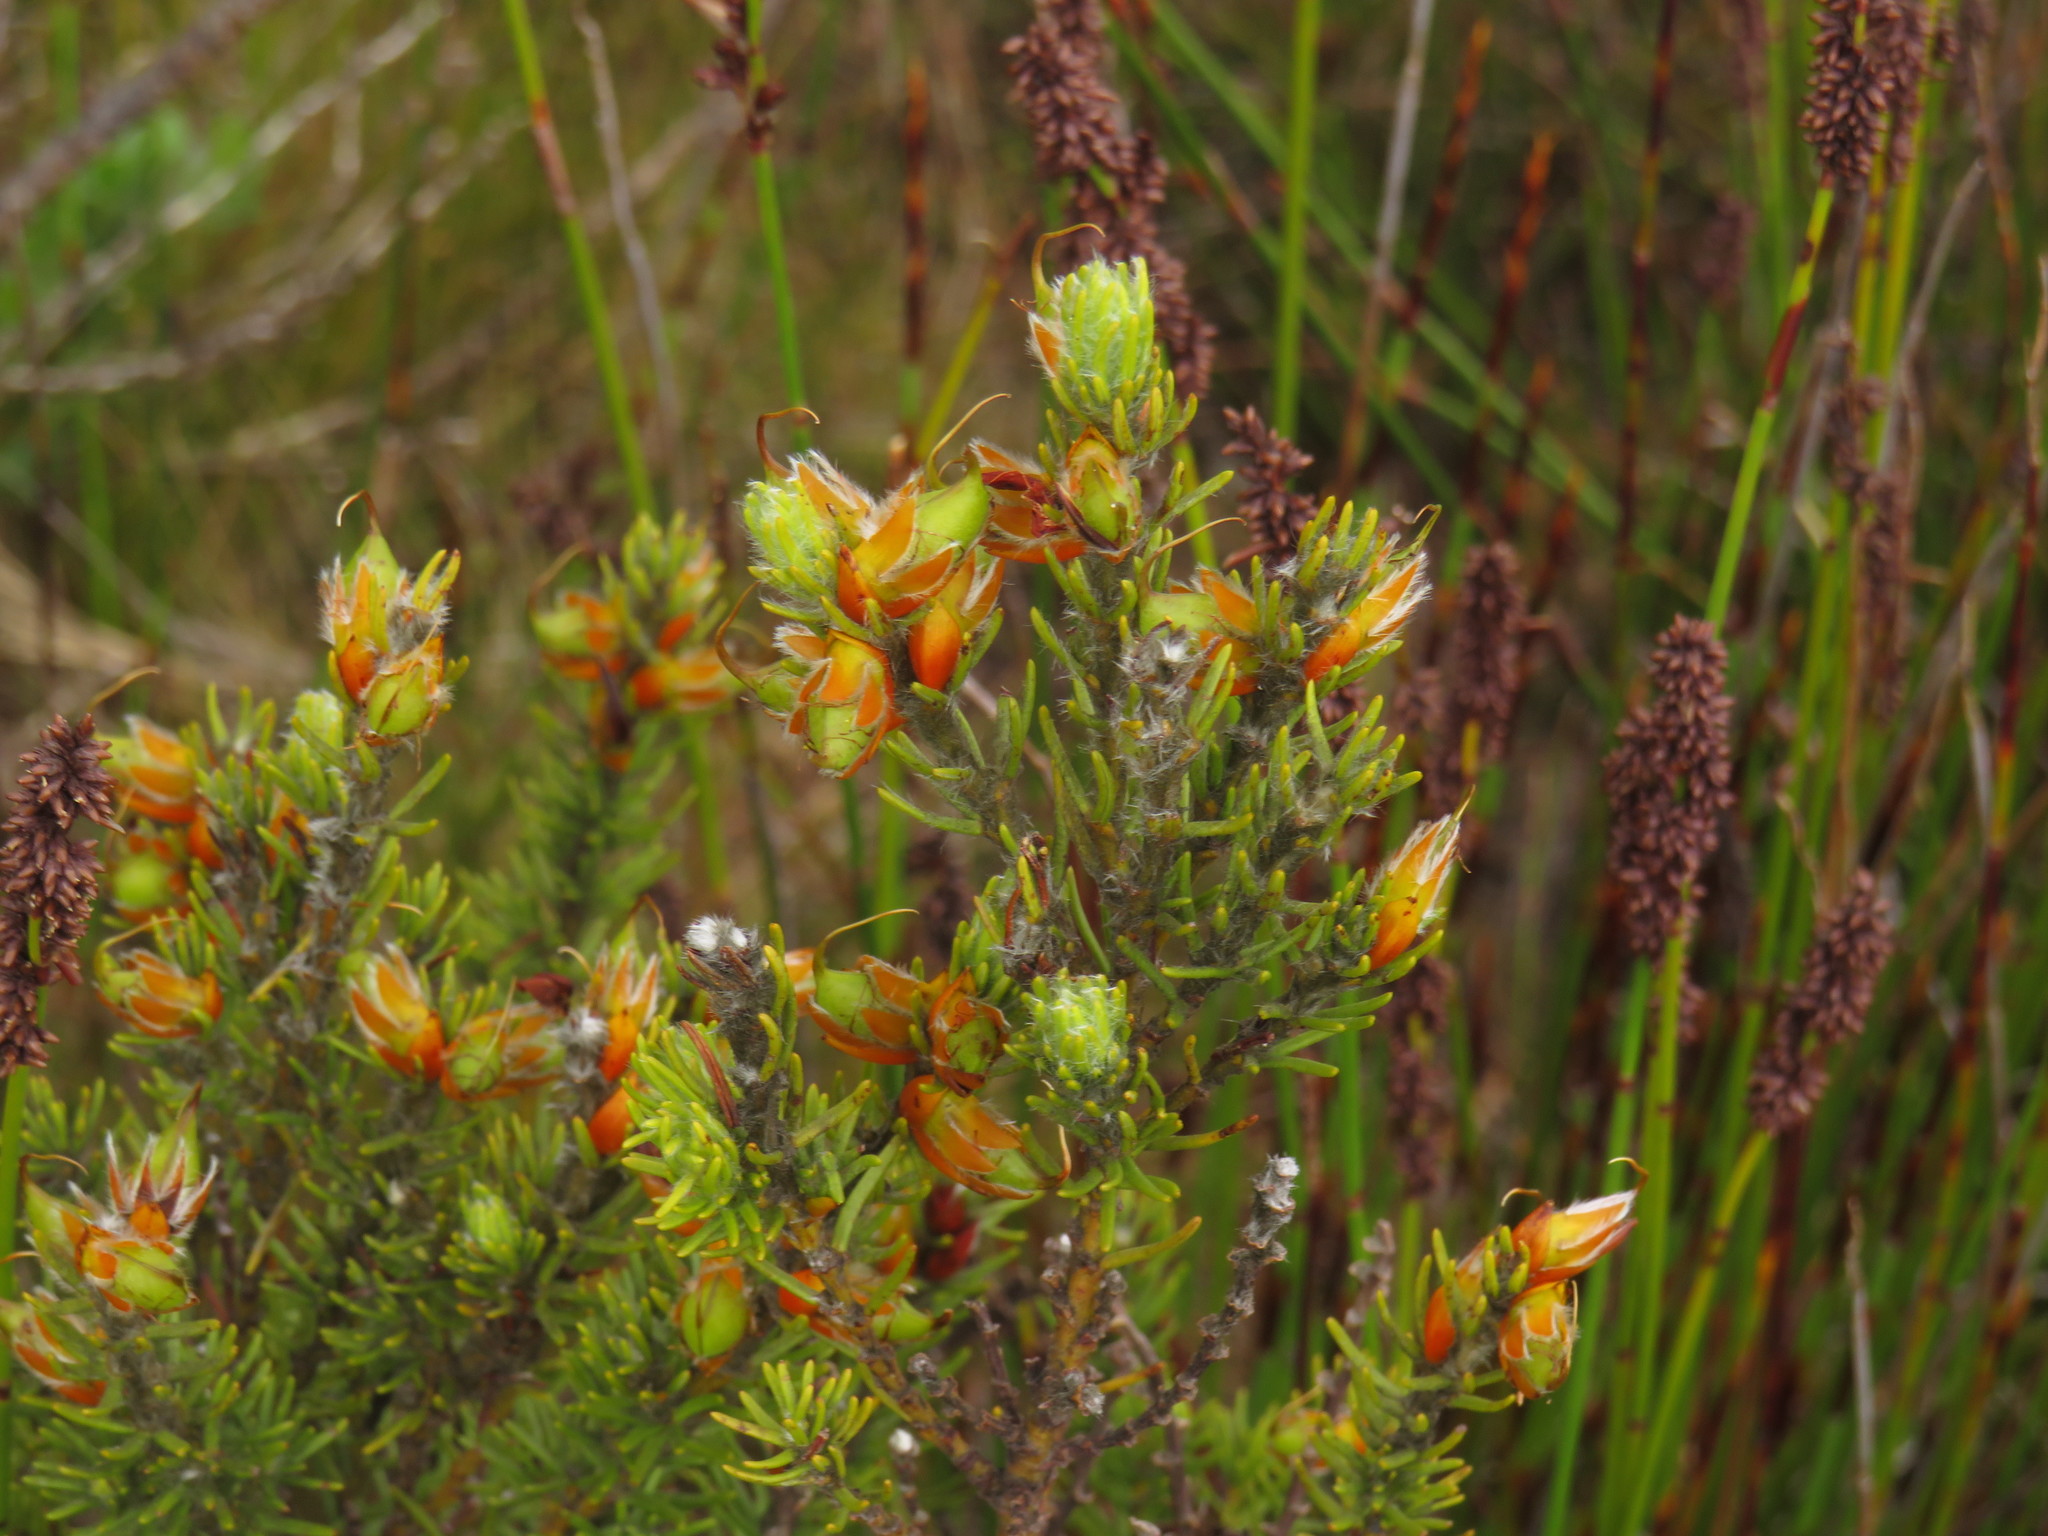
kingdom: Plantae
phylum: Tracheophyta
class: Magnoliopsida
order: Fabales
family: Fabaceae
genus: Cyclopia
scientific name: Cyclopia meyeriana
